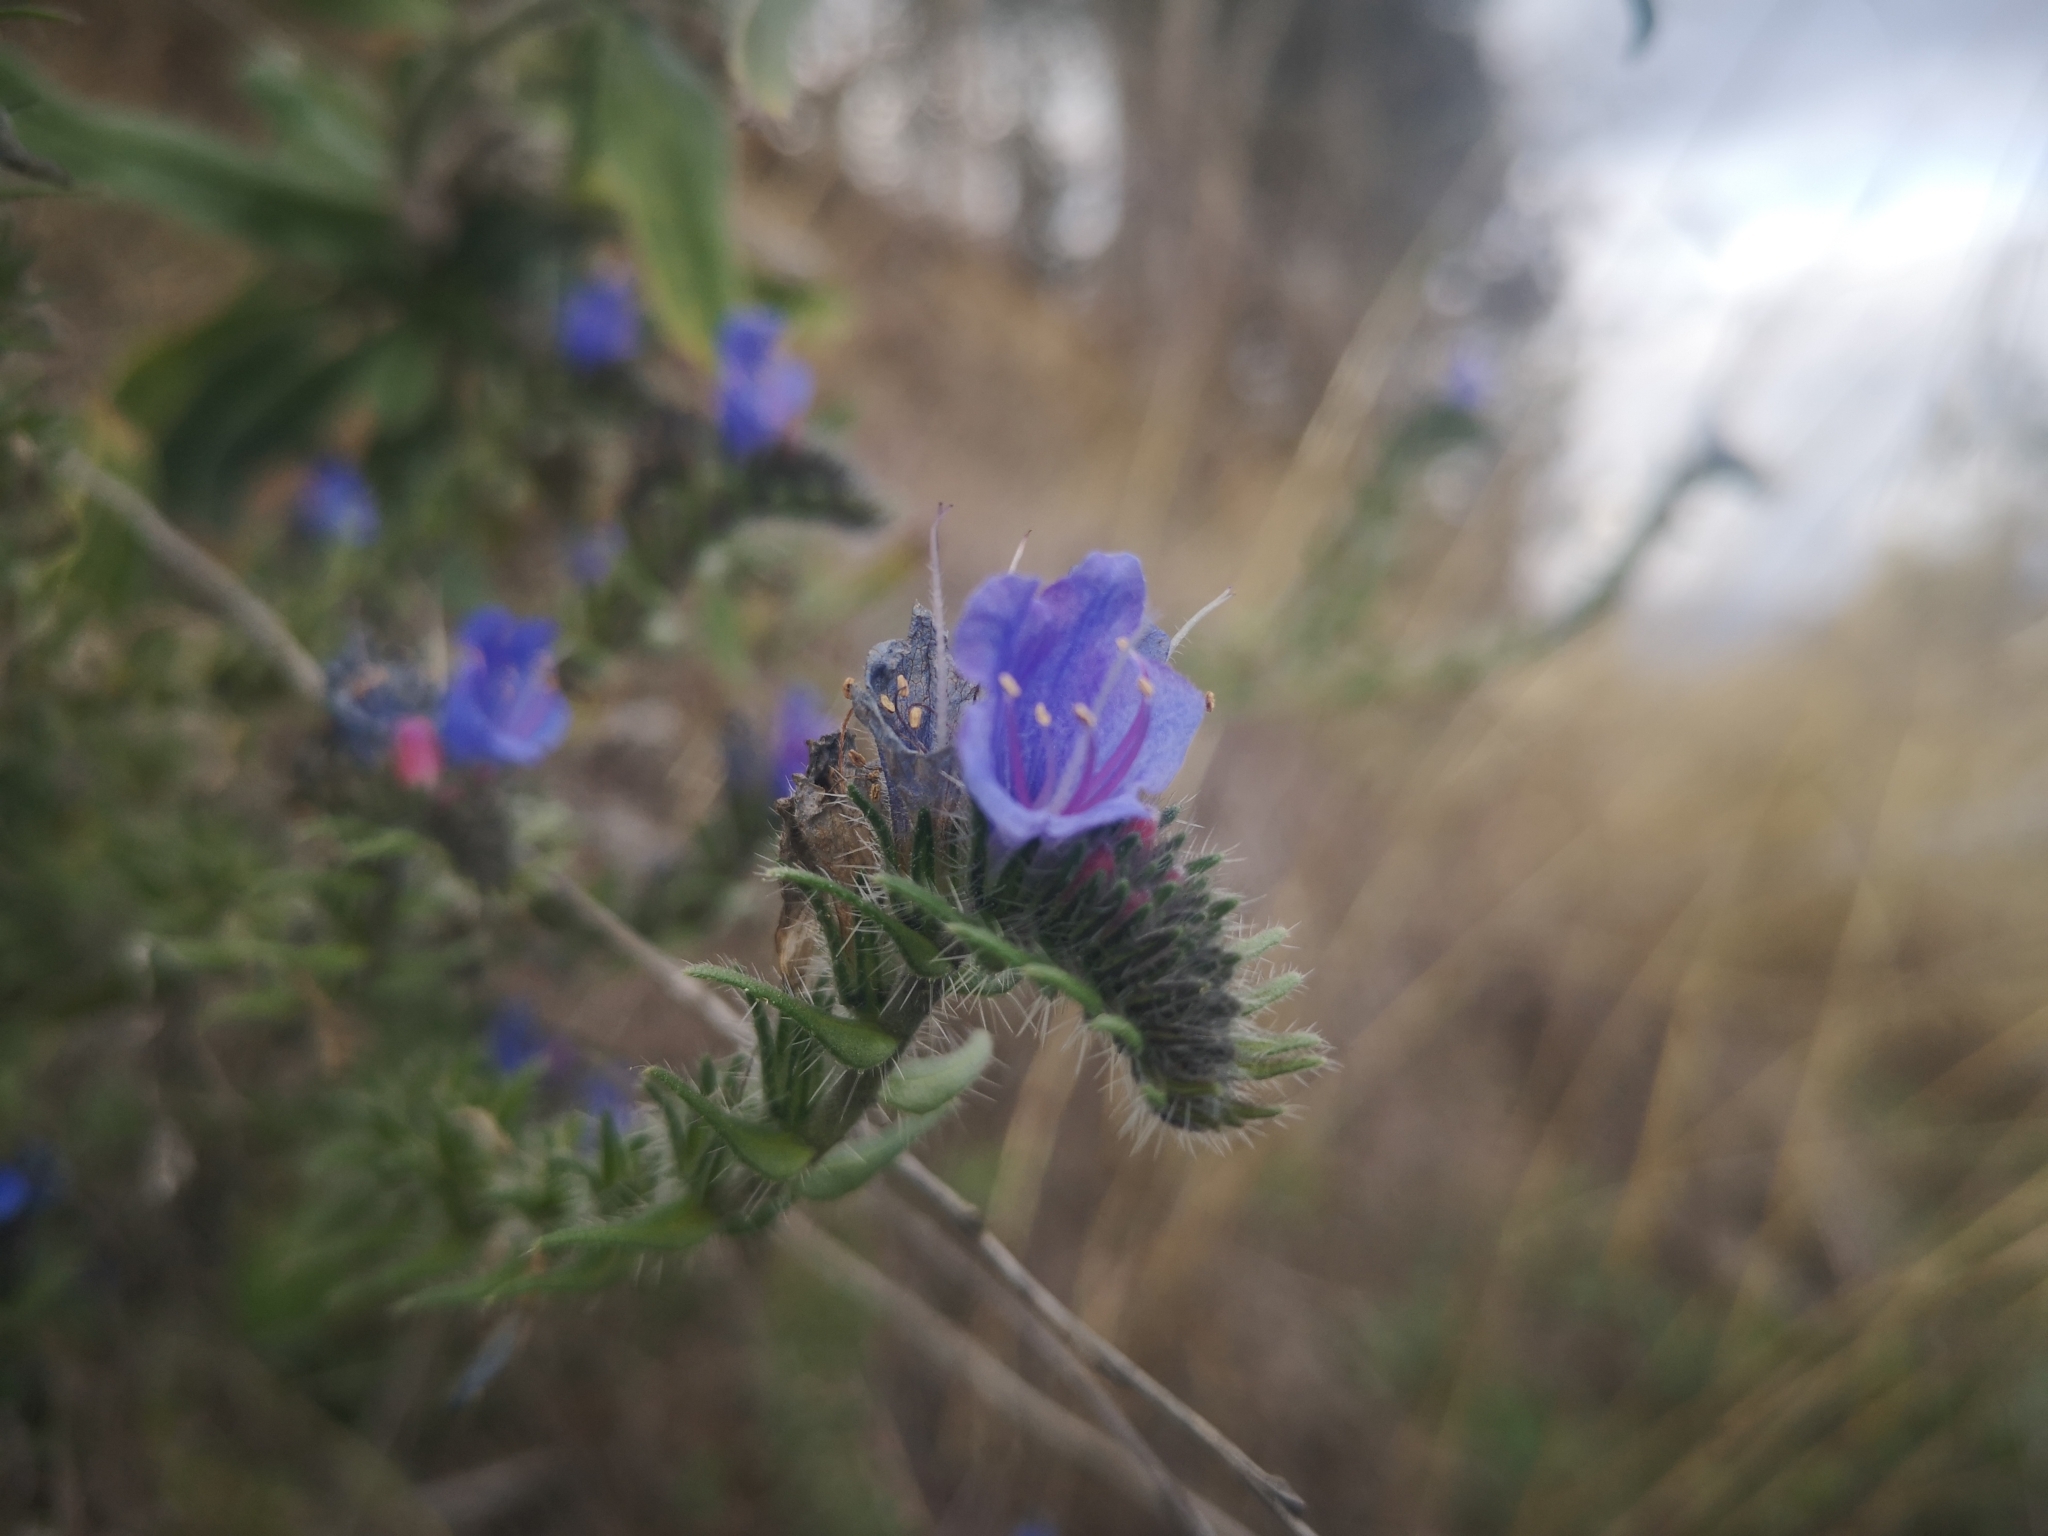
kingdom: Plantae
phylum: Tracheophyta
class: Magnoliopsida
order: Boraginales
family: Boraginaceae
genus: Echium
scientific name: Echium vulgare
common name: Common viper's bugloss
